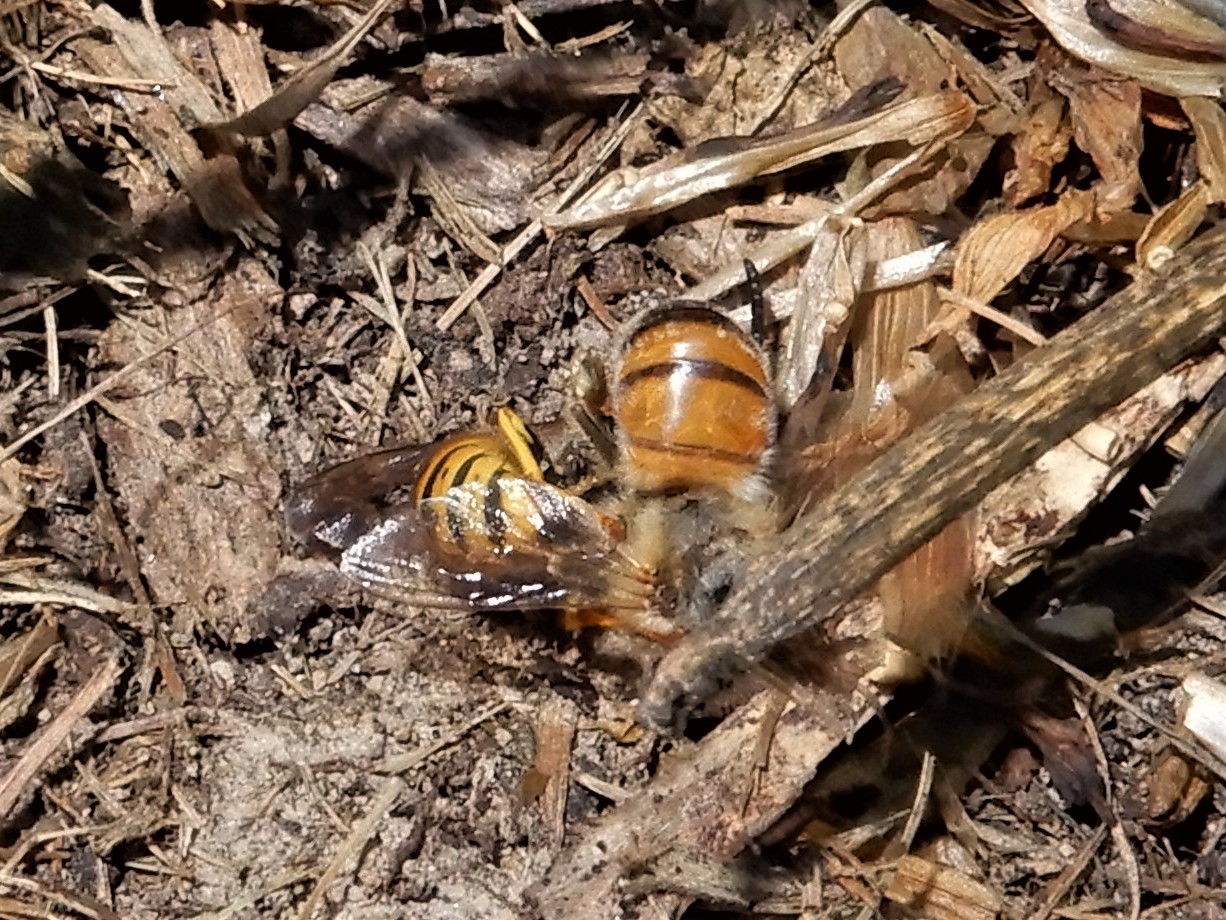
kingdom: Animalia
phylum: Arthropoda
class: Insecta
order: Hymenoptera
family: Vespidae
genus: Vespula
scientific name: Vespula germanica
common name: German wasp
